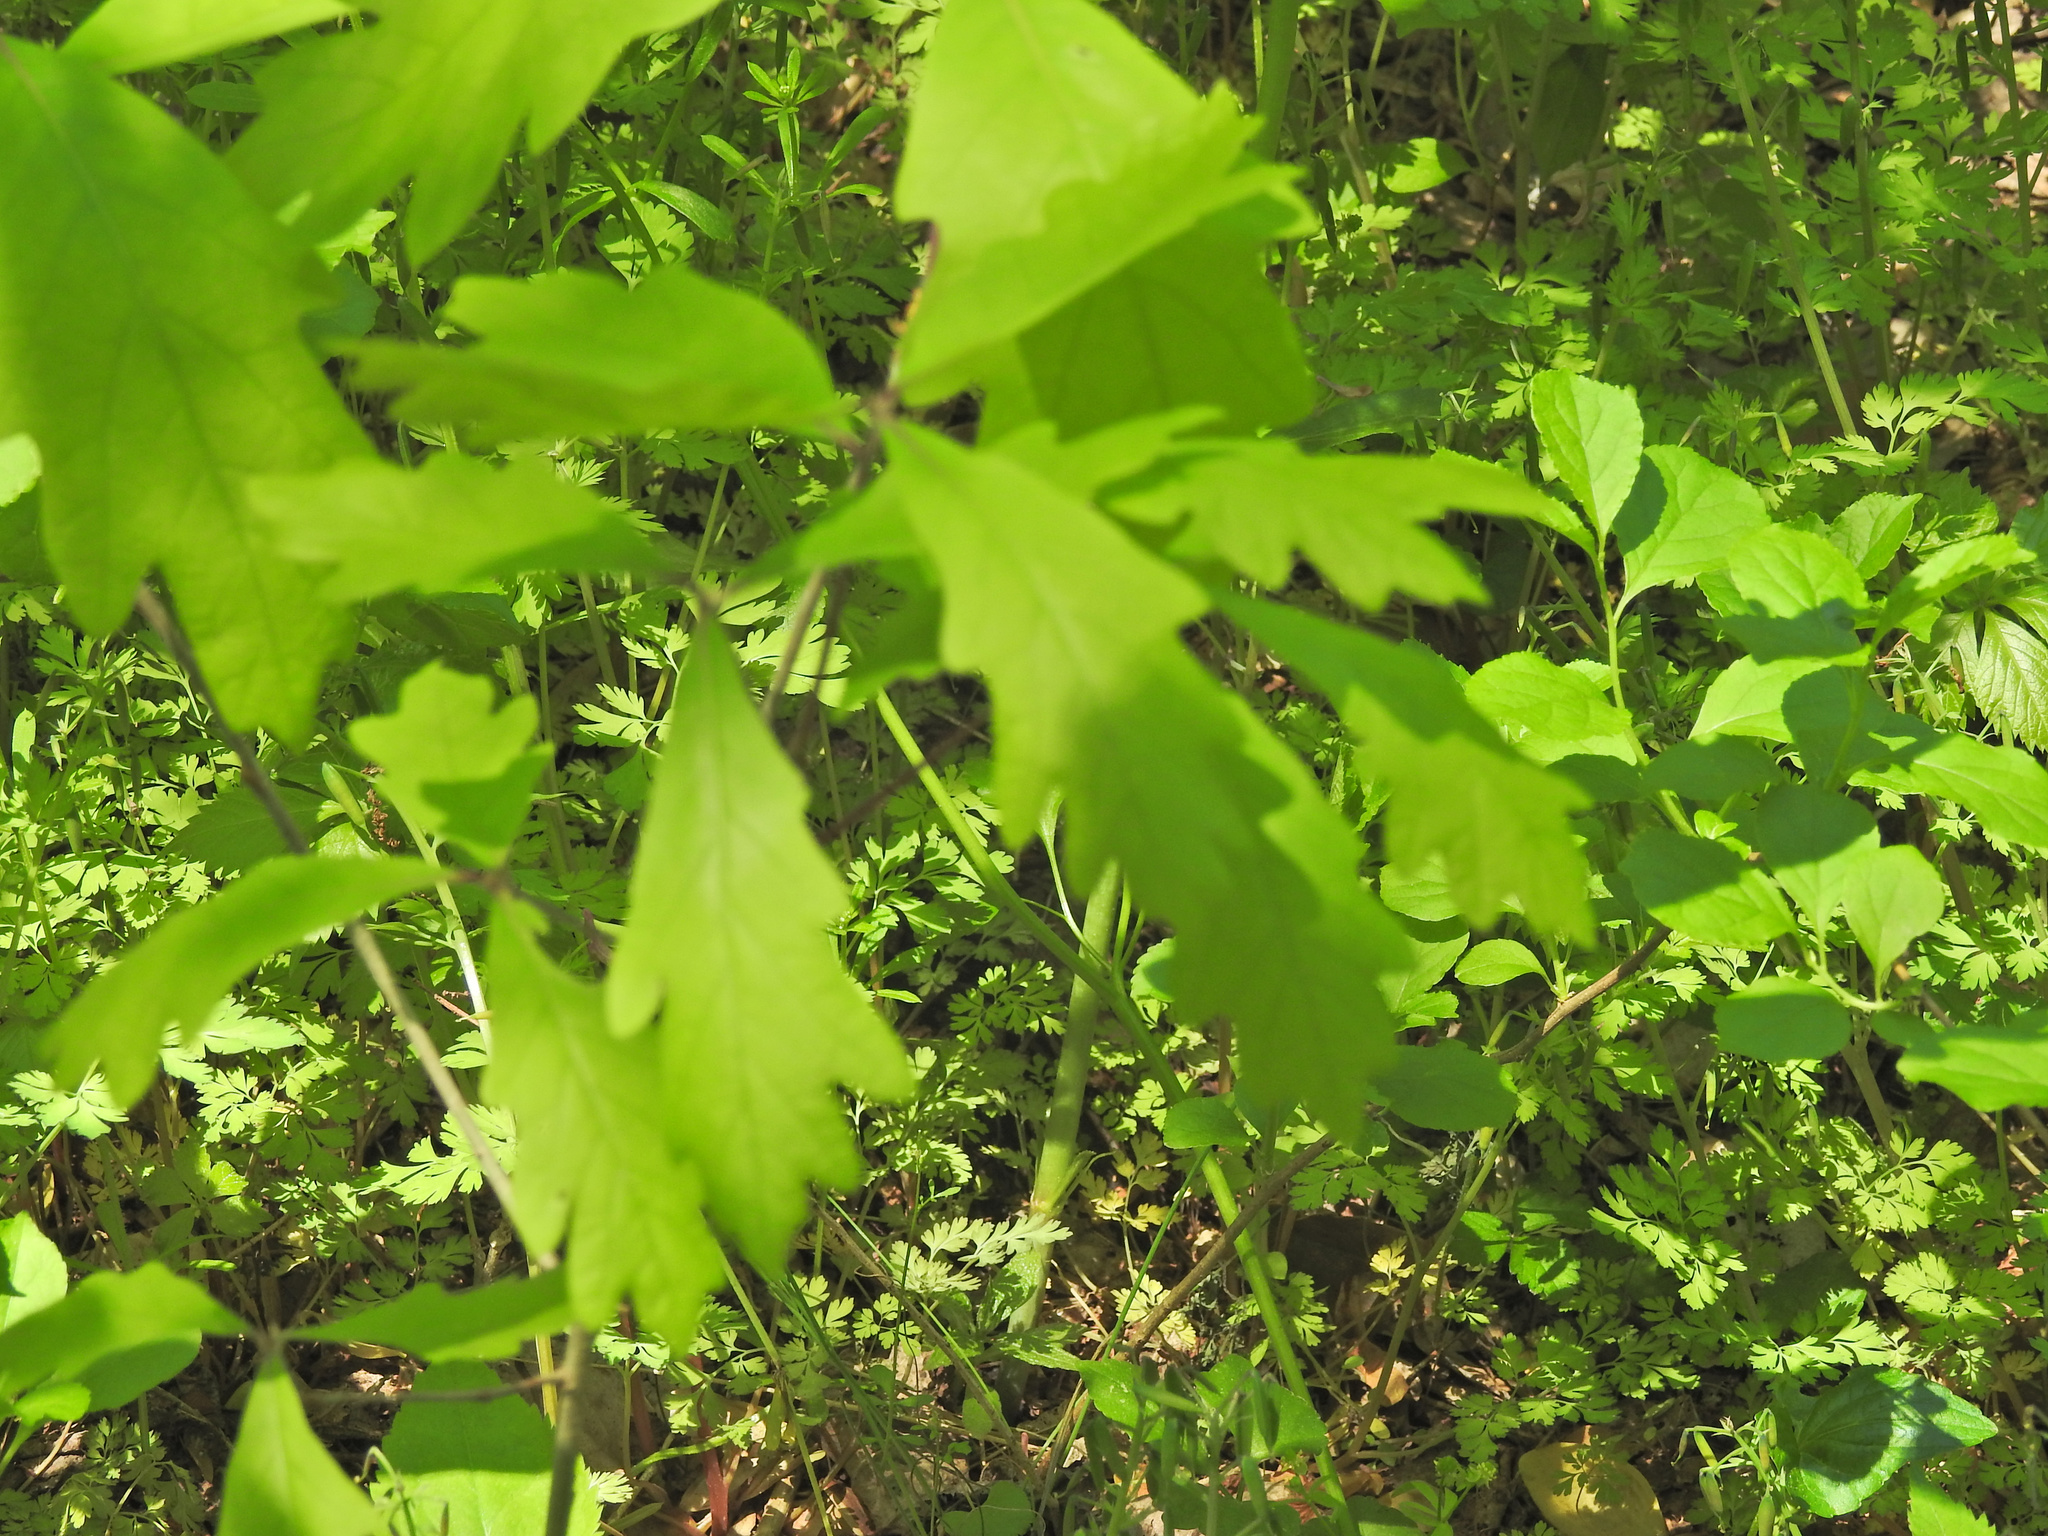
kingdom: Plantae
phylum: Tracheophyta
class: Magnoliopsida
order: Fagales
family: Fagaceae
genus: Quercus
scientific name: Quercus alba
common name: White oak
